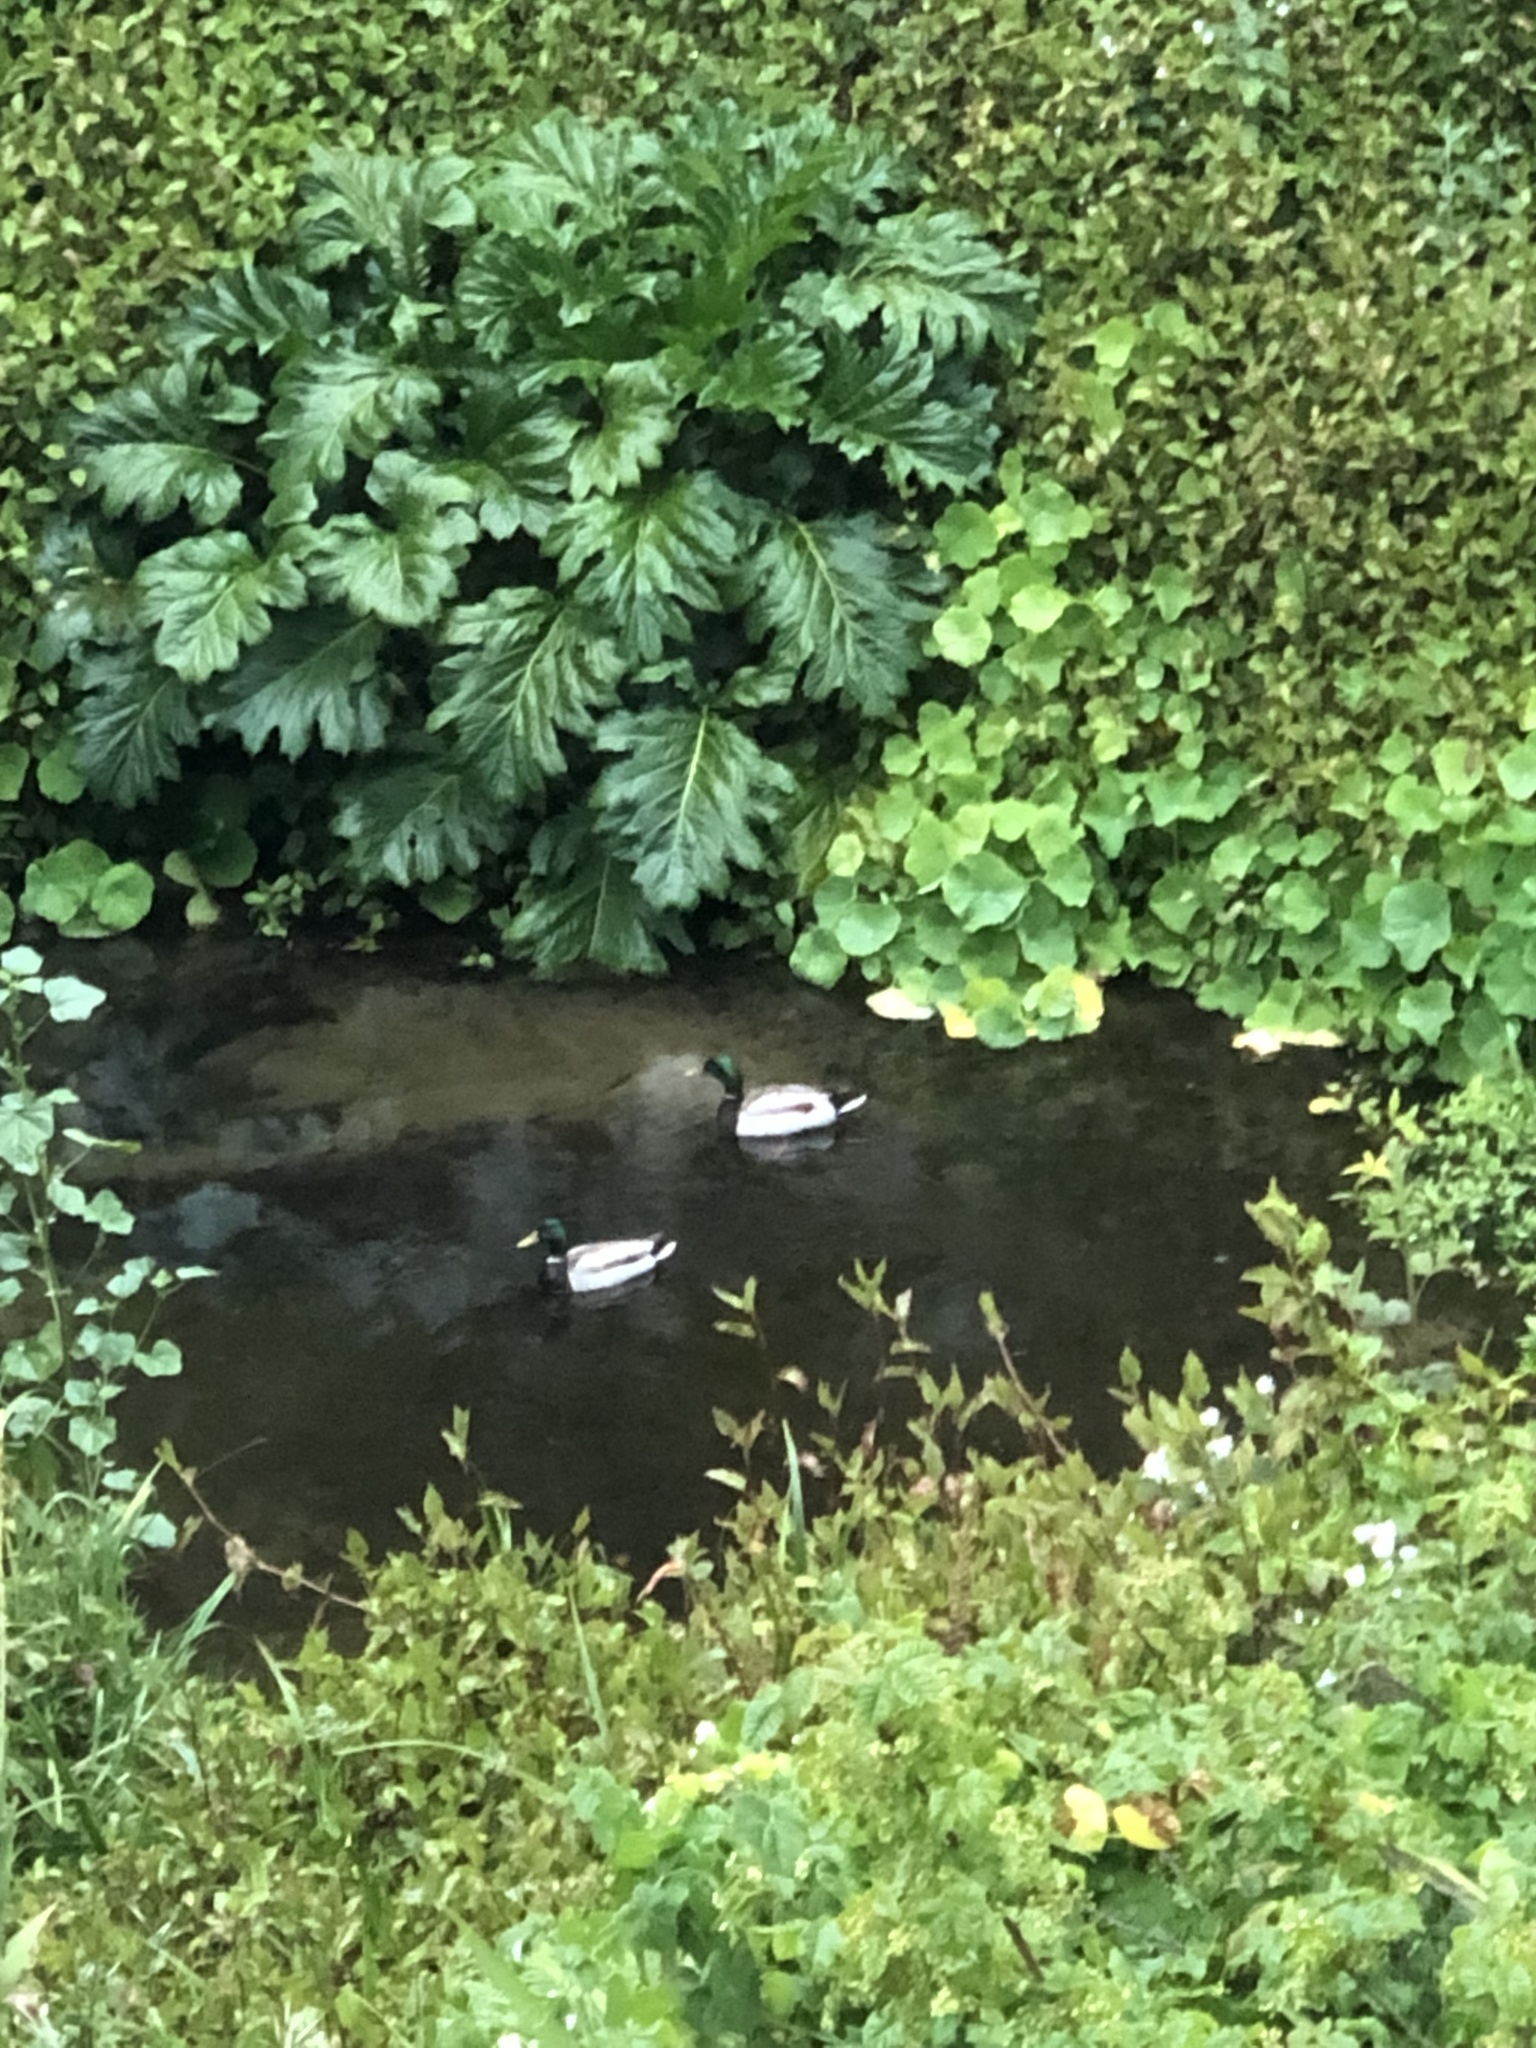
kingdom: Animalia
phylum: Chordata
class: Aves
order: Anseriformes
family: Anatidae
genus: Anas
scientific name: Anas platyrhynchos
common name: Mallard
